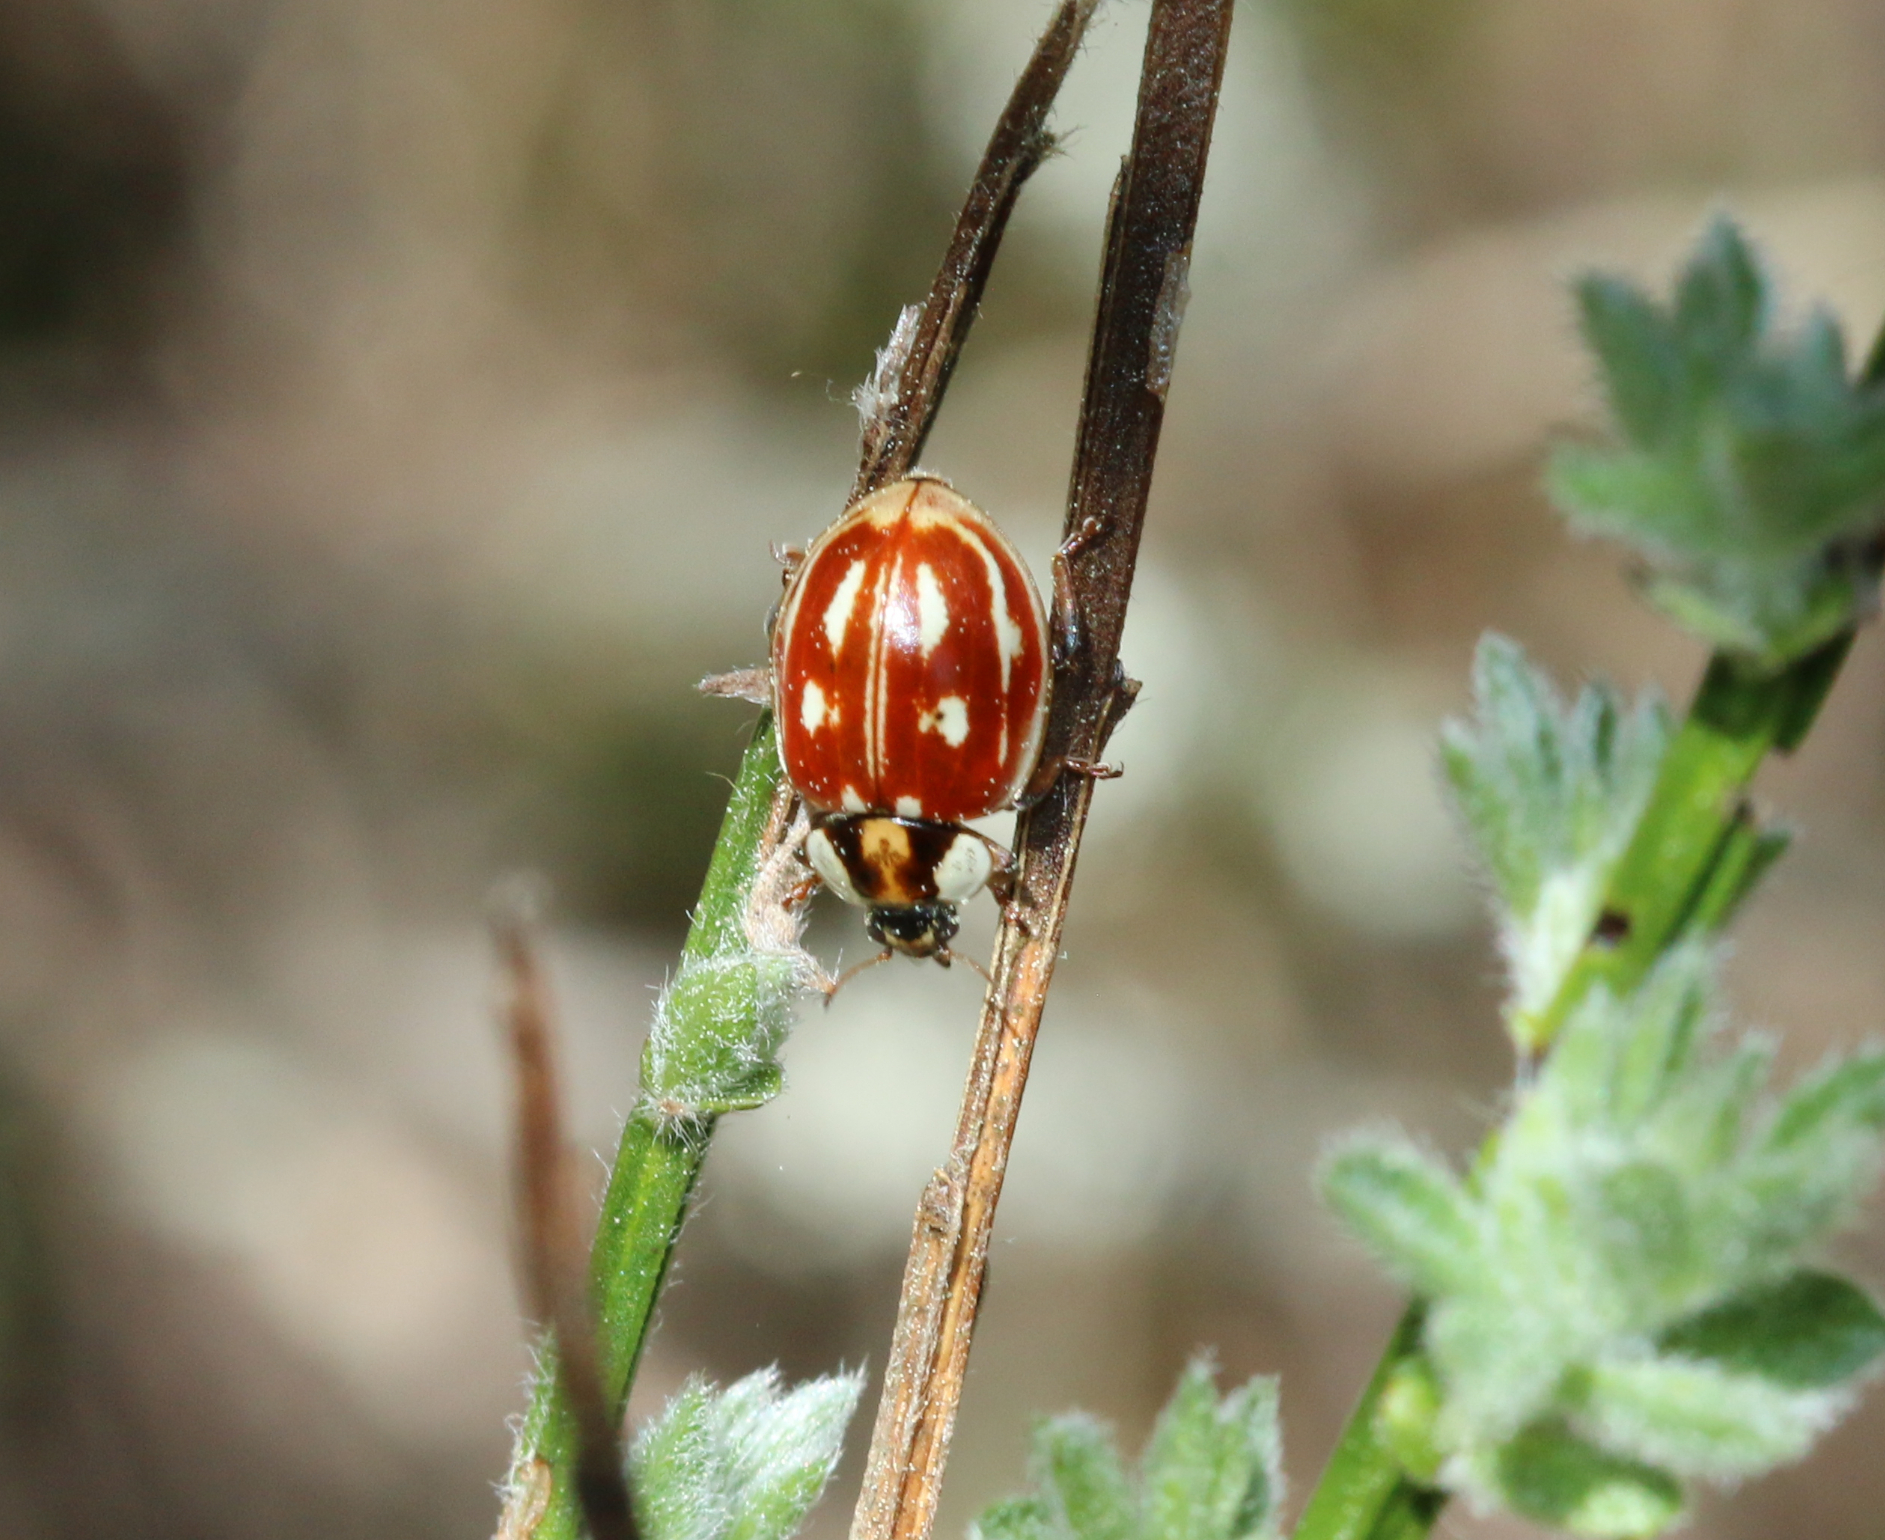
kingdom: Animalia
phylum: Arthropoda
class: Insecta
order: Coleoptera
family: Coccinellidae
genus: Myzia
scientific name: Myzia oblongoguttata
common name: Striped ladybird
